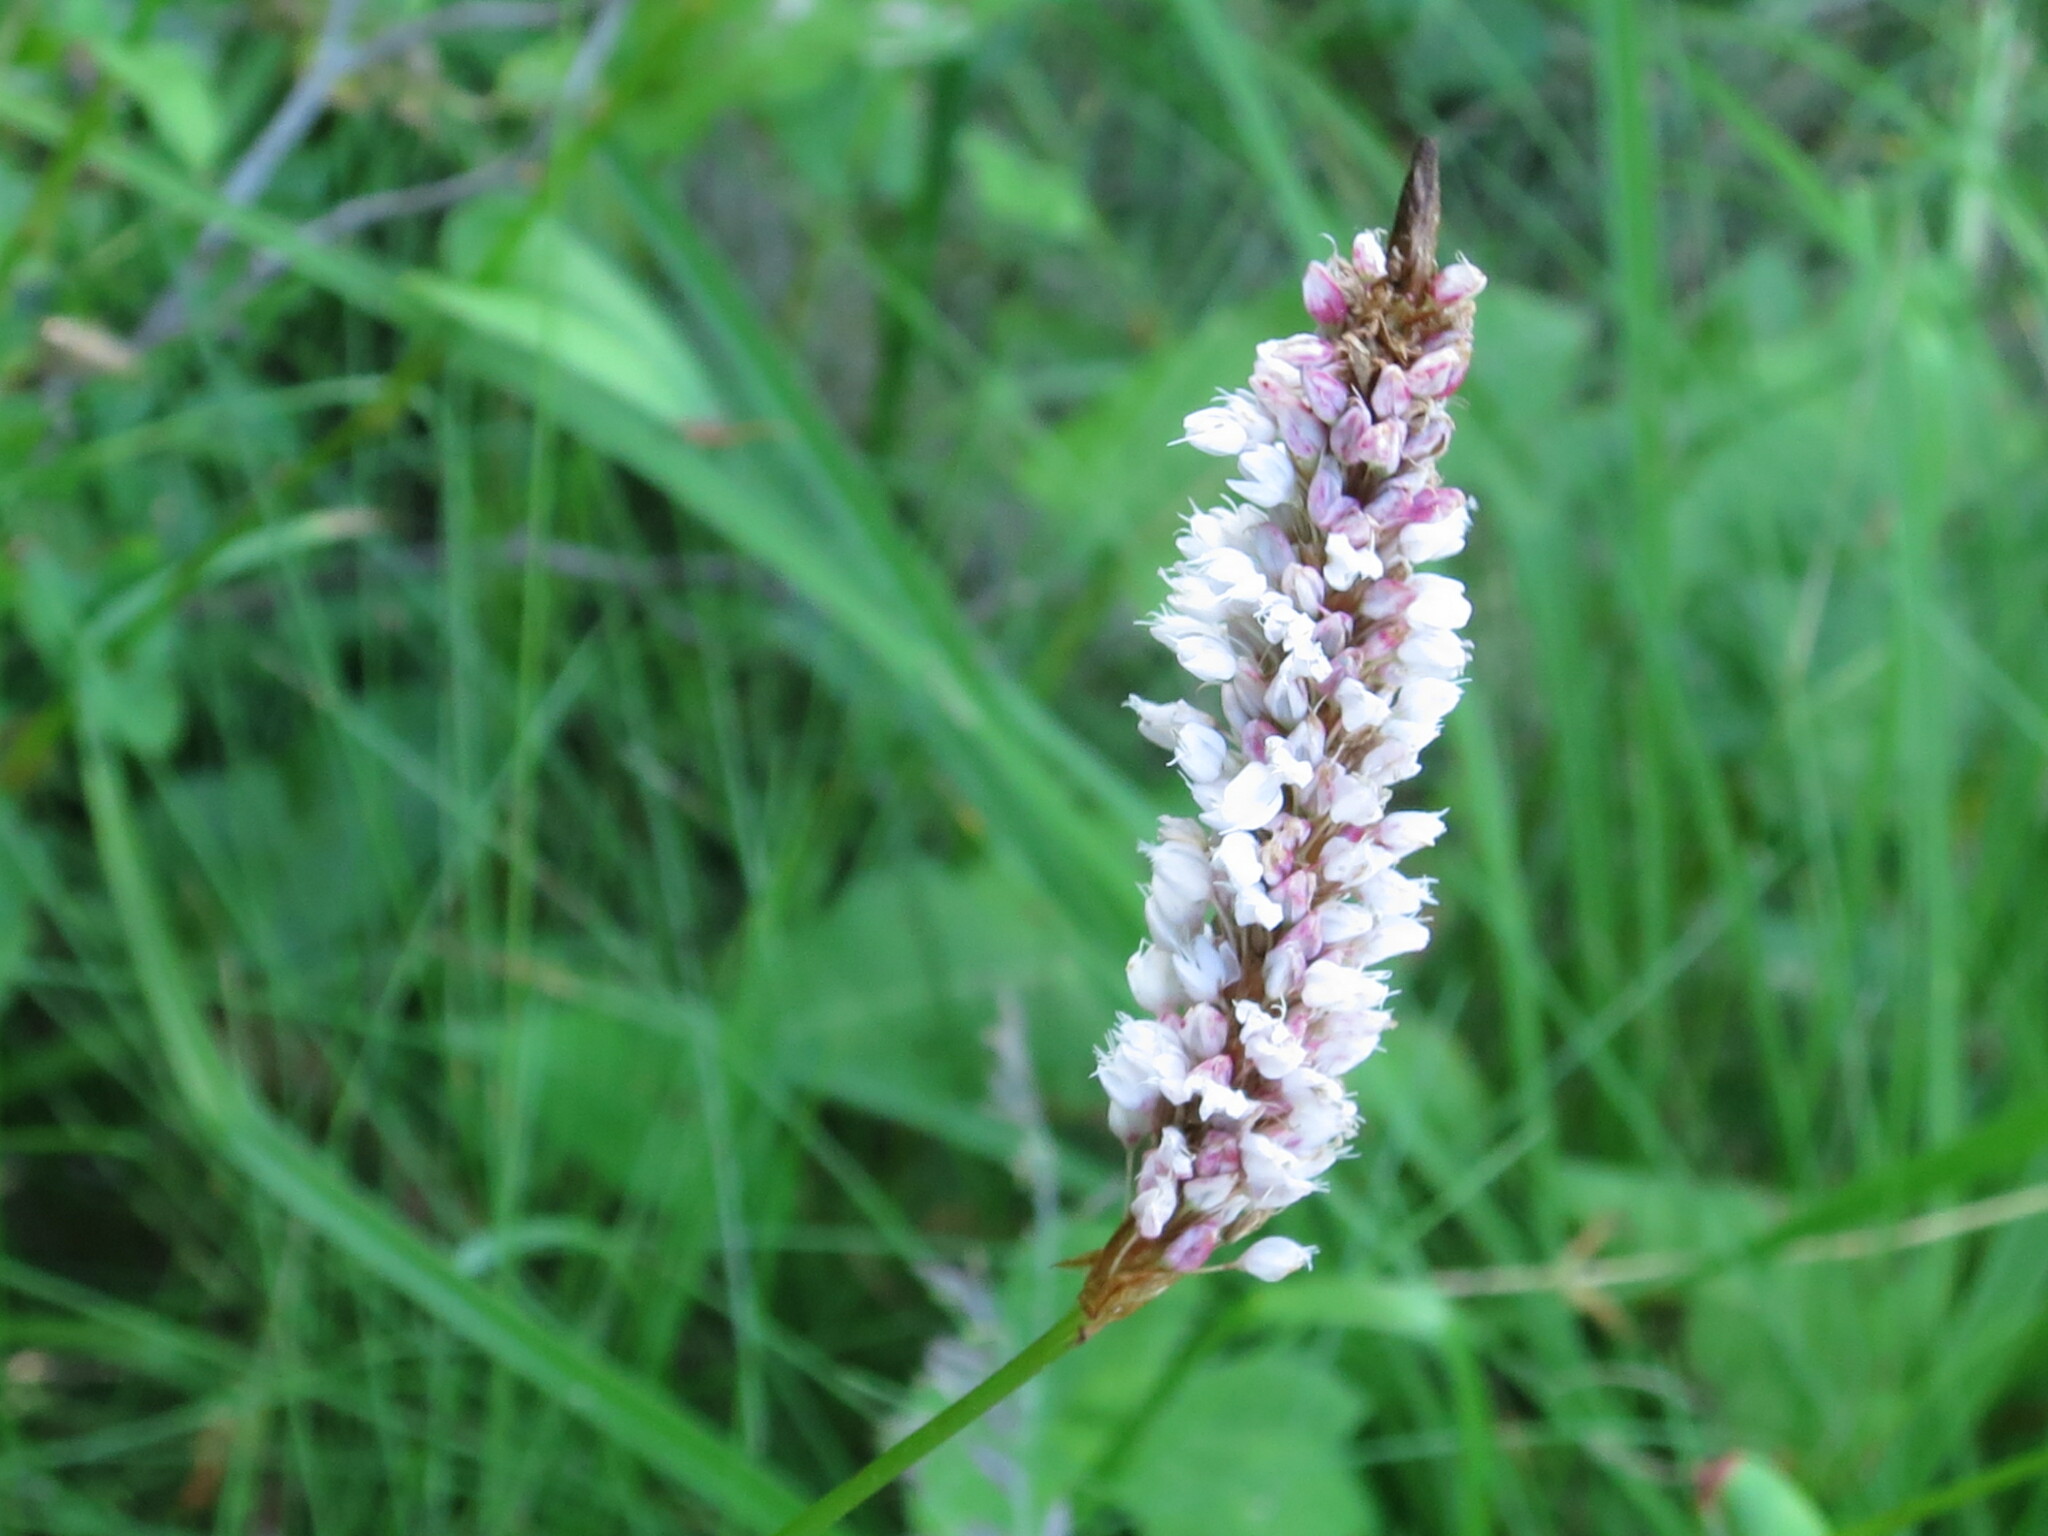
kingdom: Plantae
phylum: Tracheophyta
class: Magnoliopsida
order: Caryophyllales
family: Polygonaceae
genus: Bistorta
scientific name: Bistorta officinalis
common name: Common bistort
